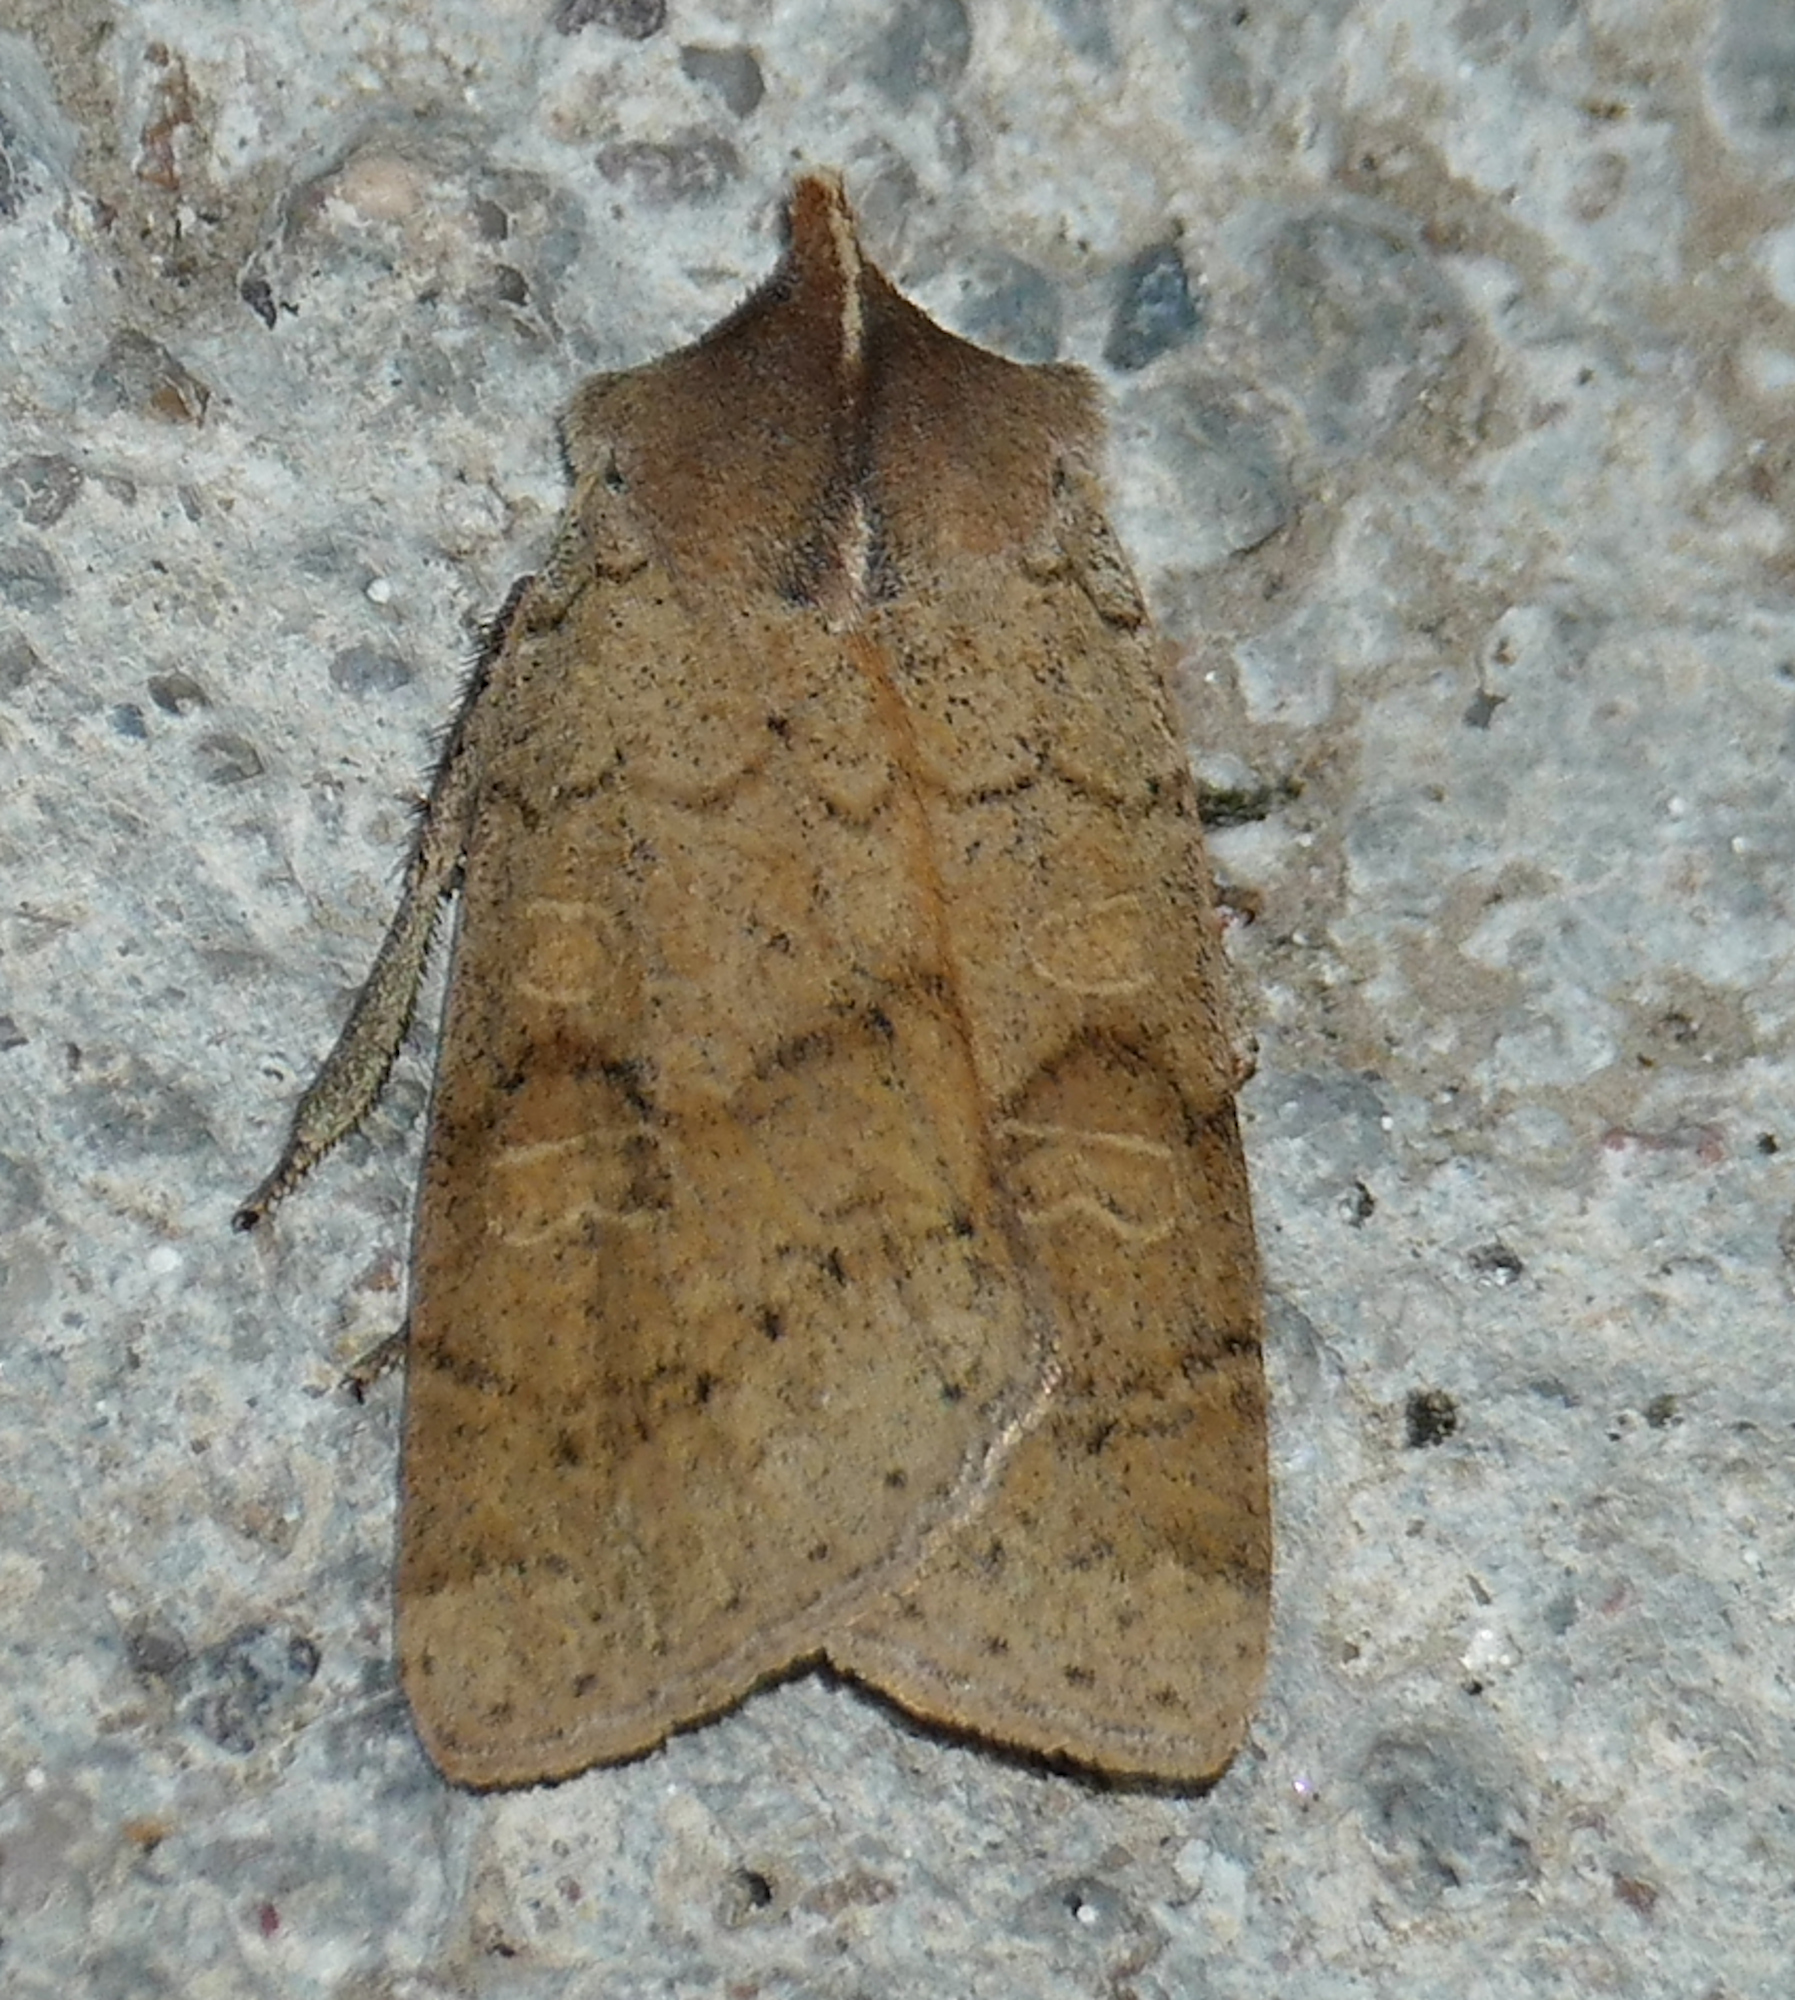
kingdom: Animalia
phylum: Arthropoda
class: Insecta
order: Lepidoptera
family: Noctuidae
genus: Richia
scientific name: Richia chortalis
